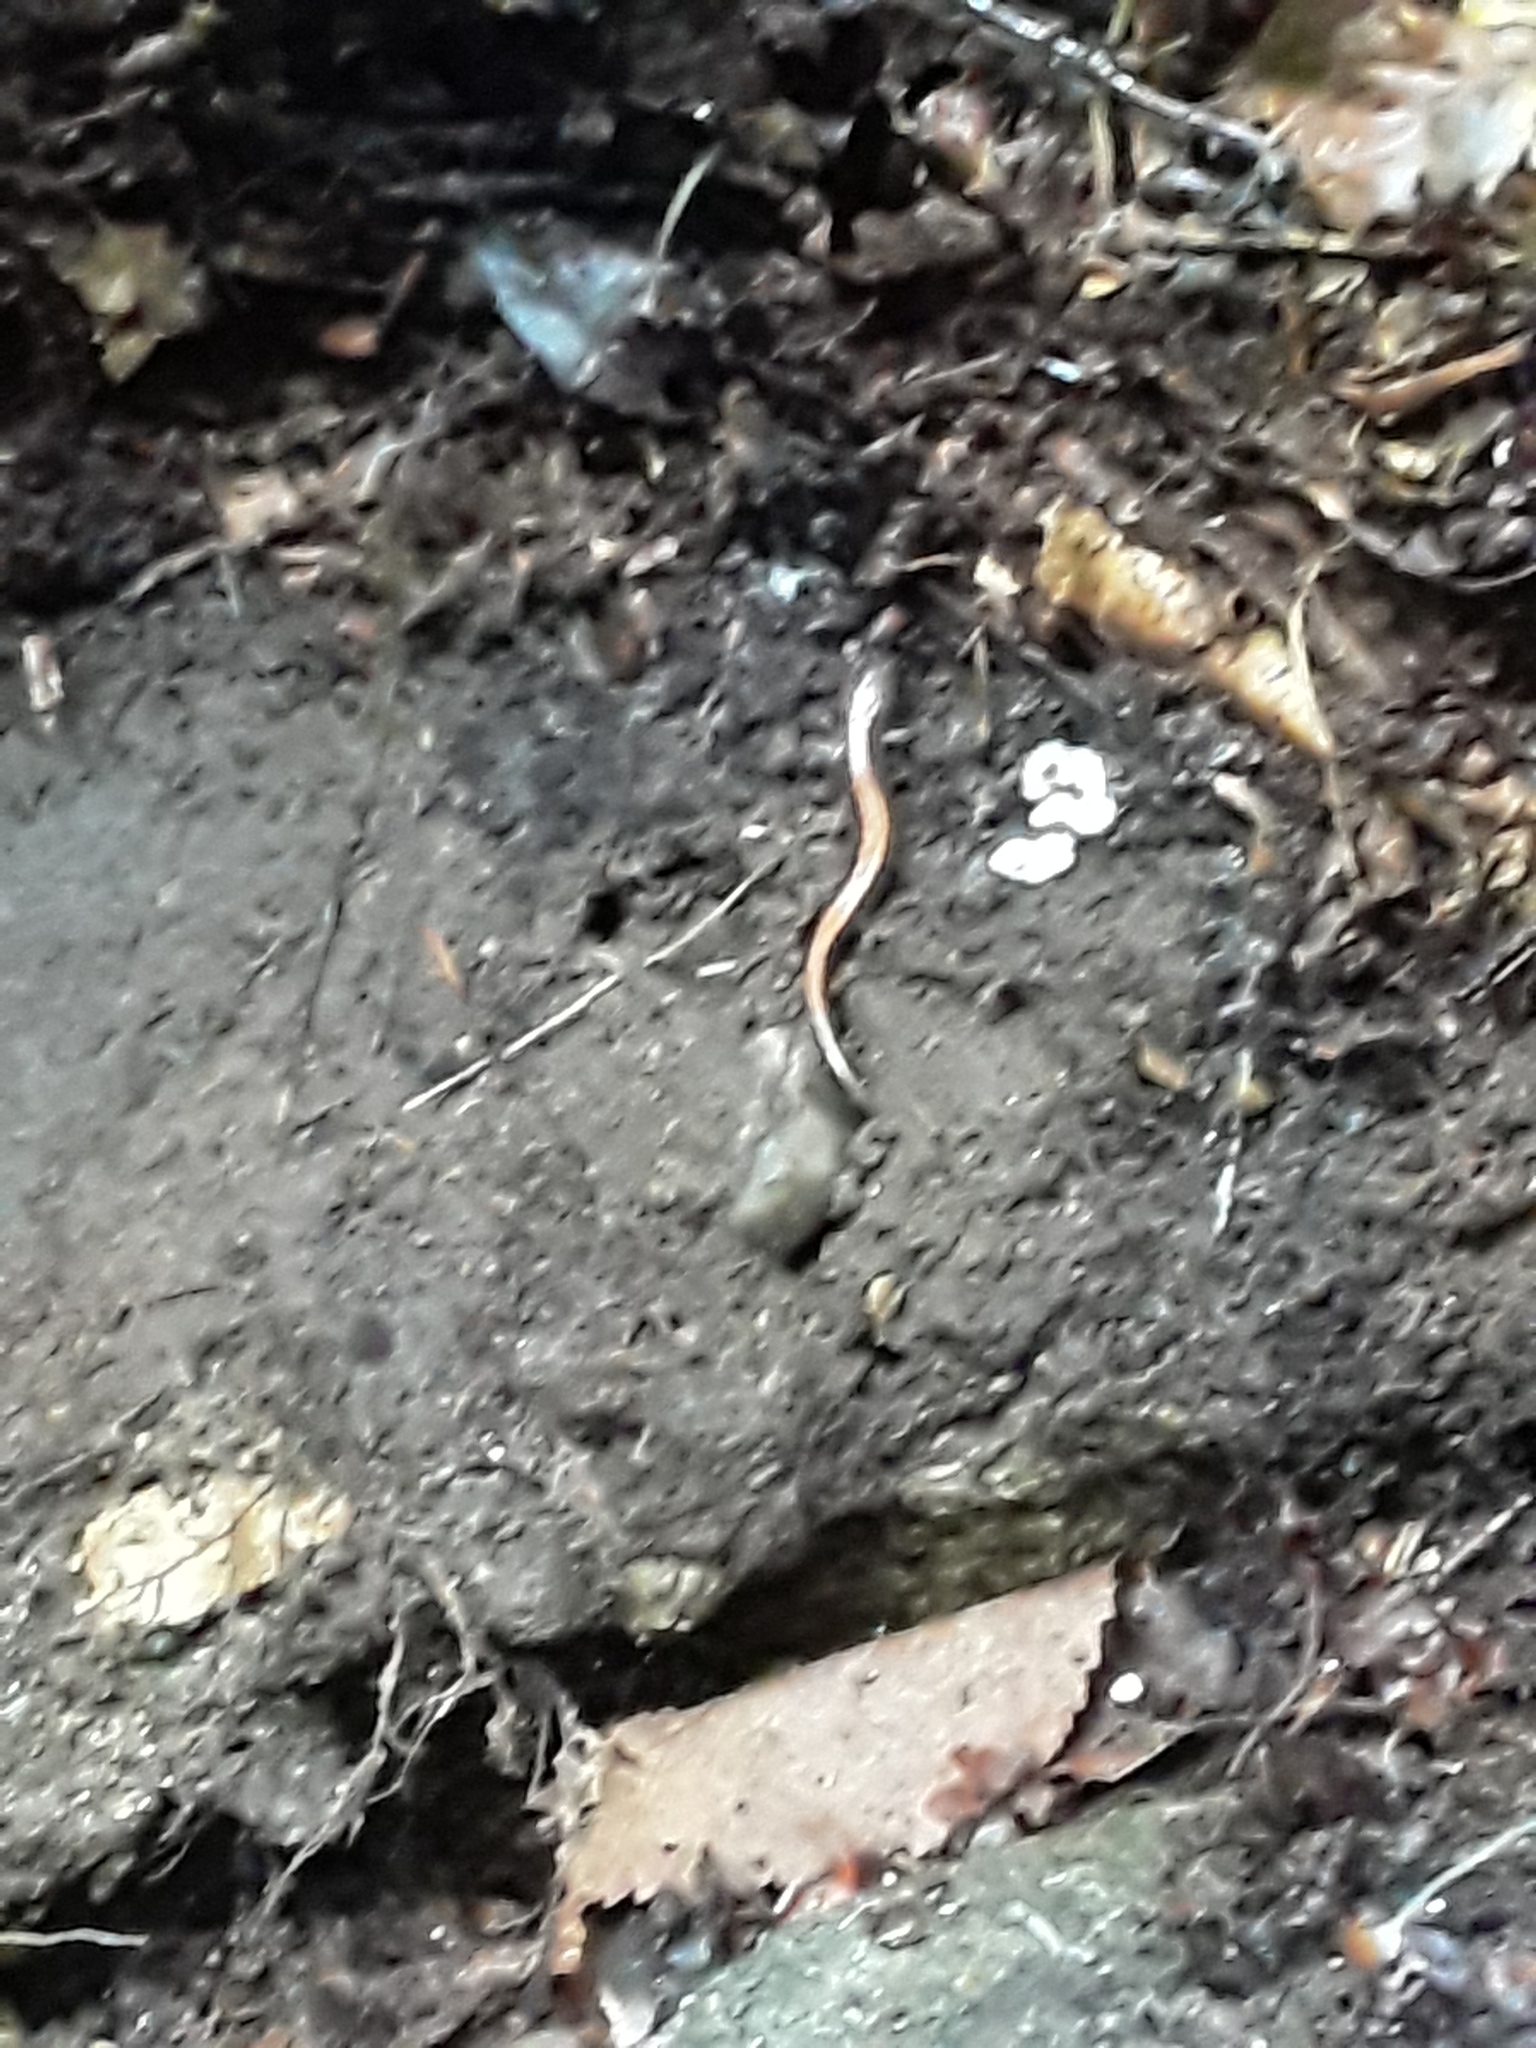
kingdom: Animalia
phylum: Chordata
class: Amphibia
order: Caudata
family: Plethodontidae
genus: Plethodon
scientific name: Plethodon cinereus
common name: Redback salamander
